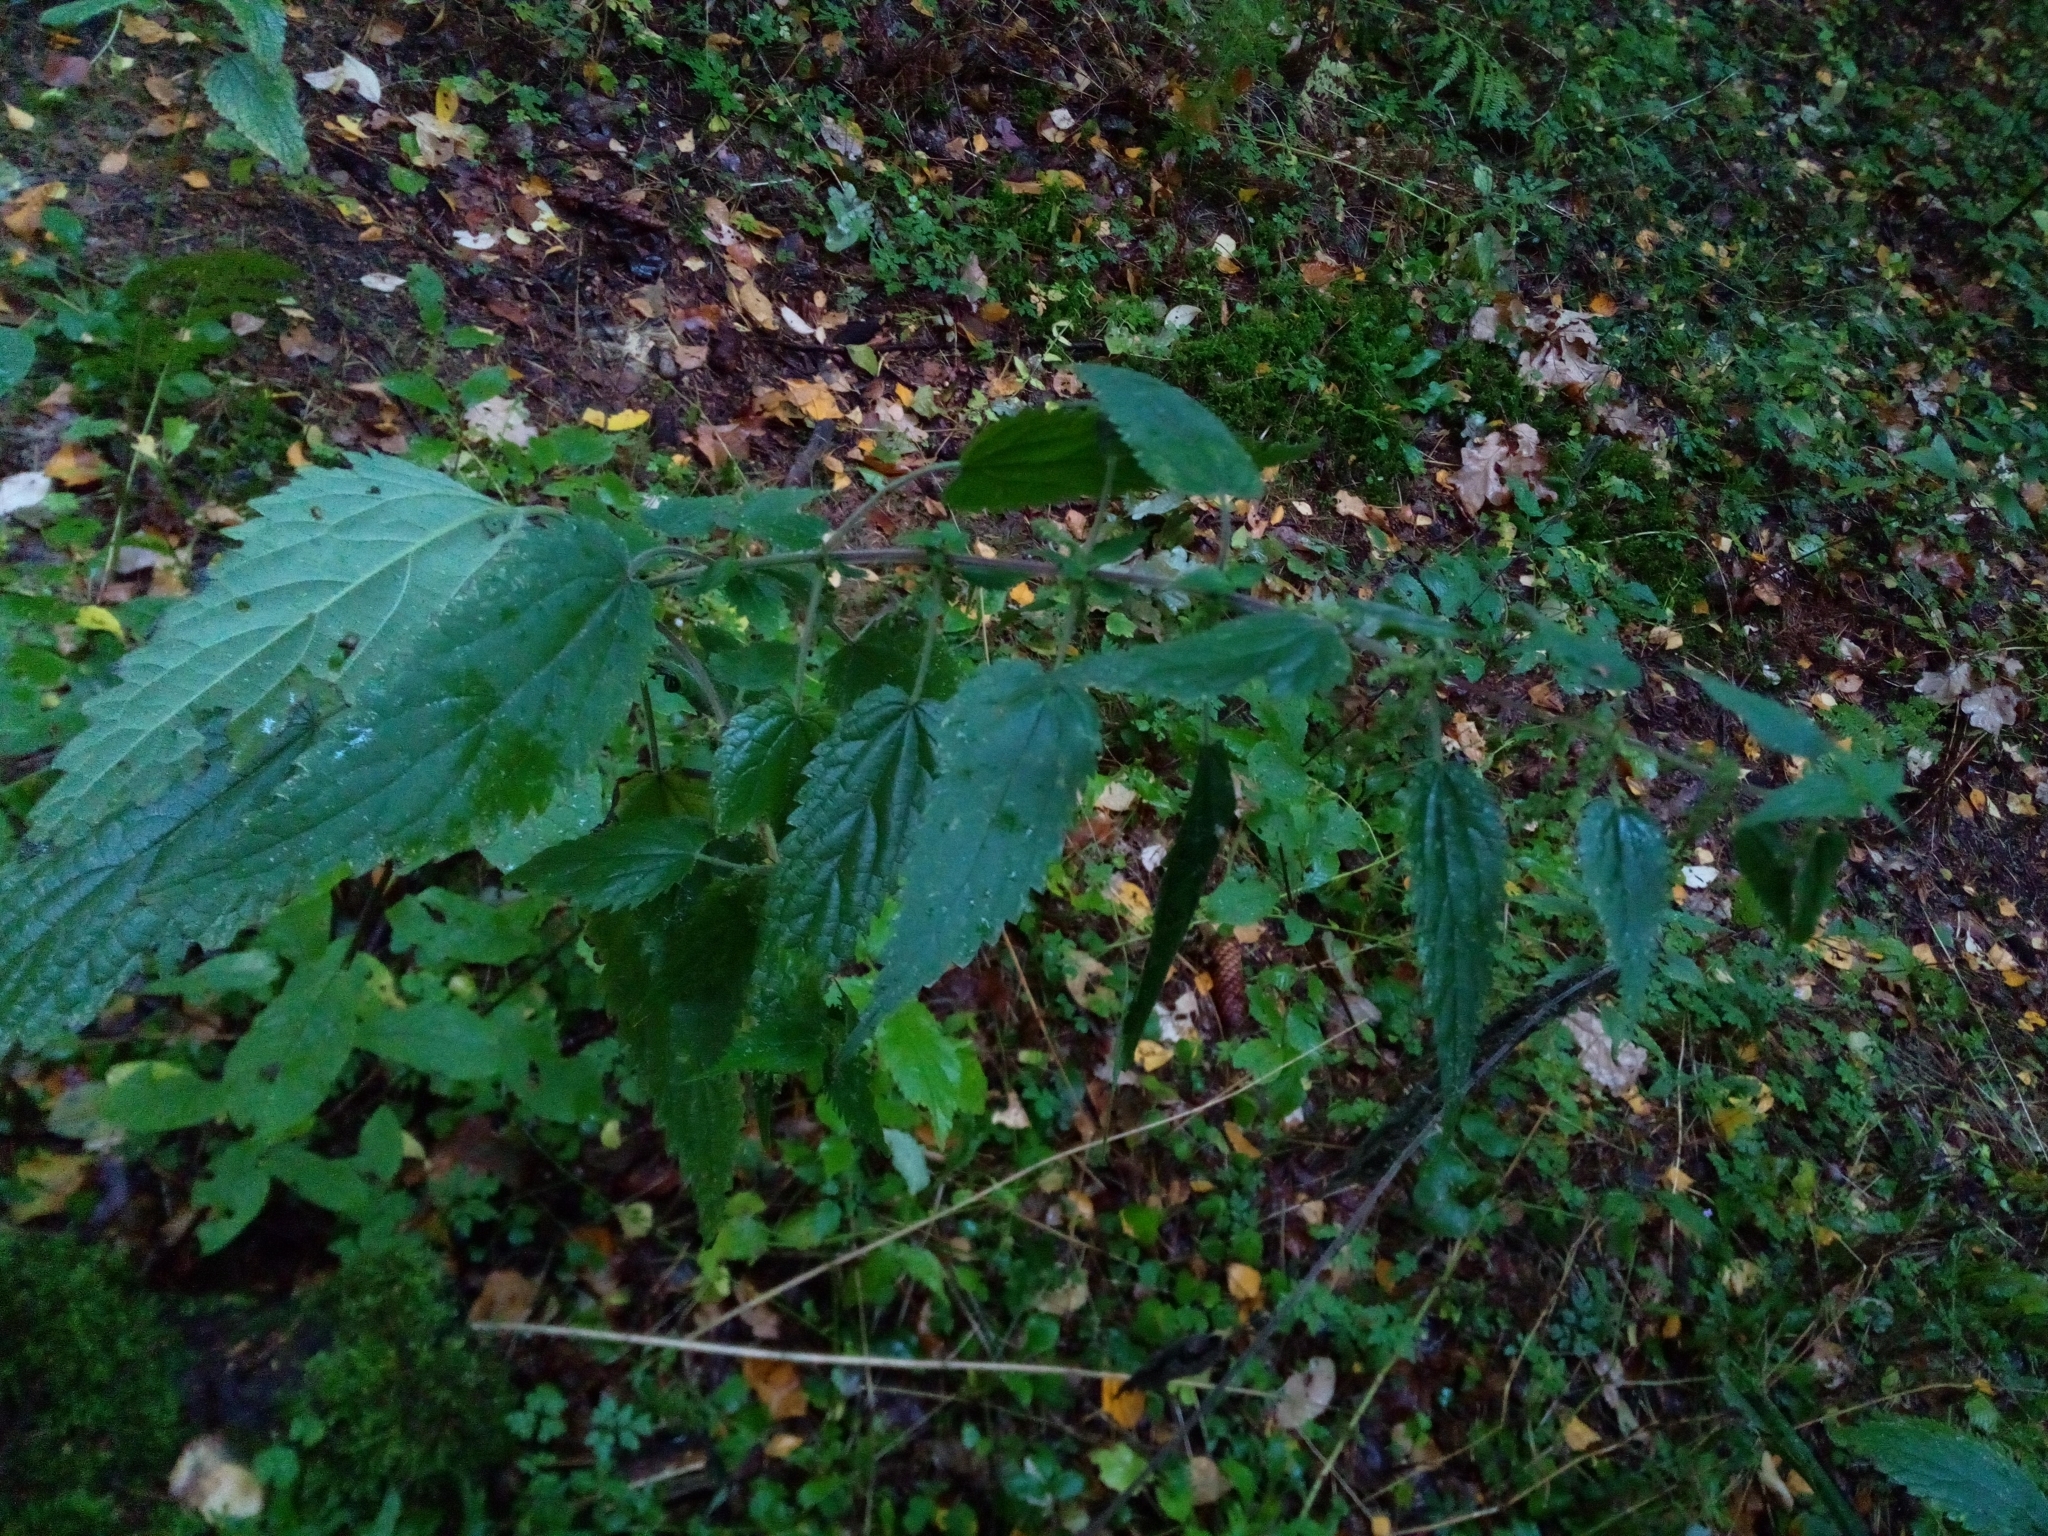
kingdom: Plantae
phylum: Tracheophyta
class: Magnoliopsida
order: Rosales
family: Urticaceae
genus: Urtica
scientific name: Urtica dioica
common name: Common nettle
